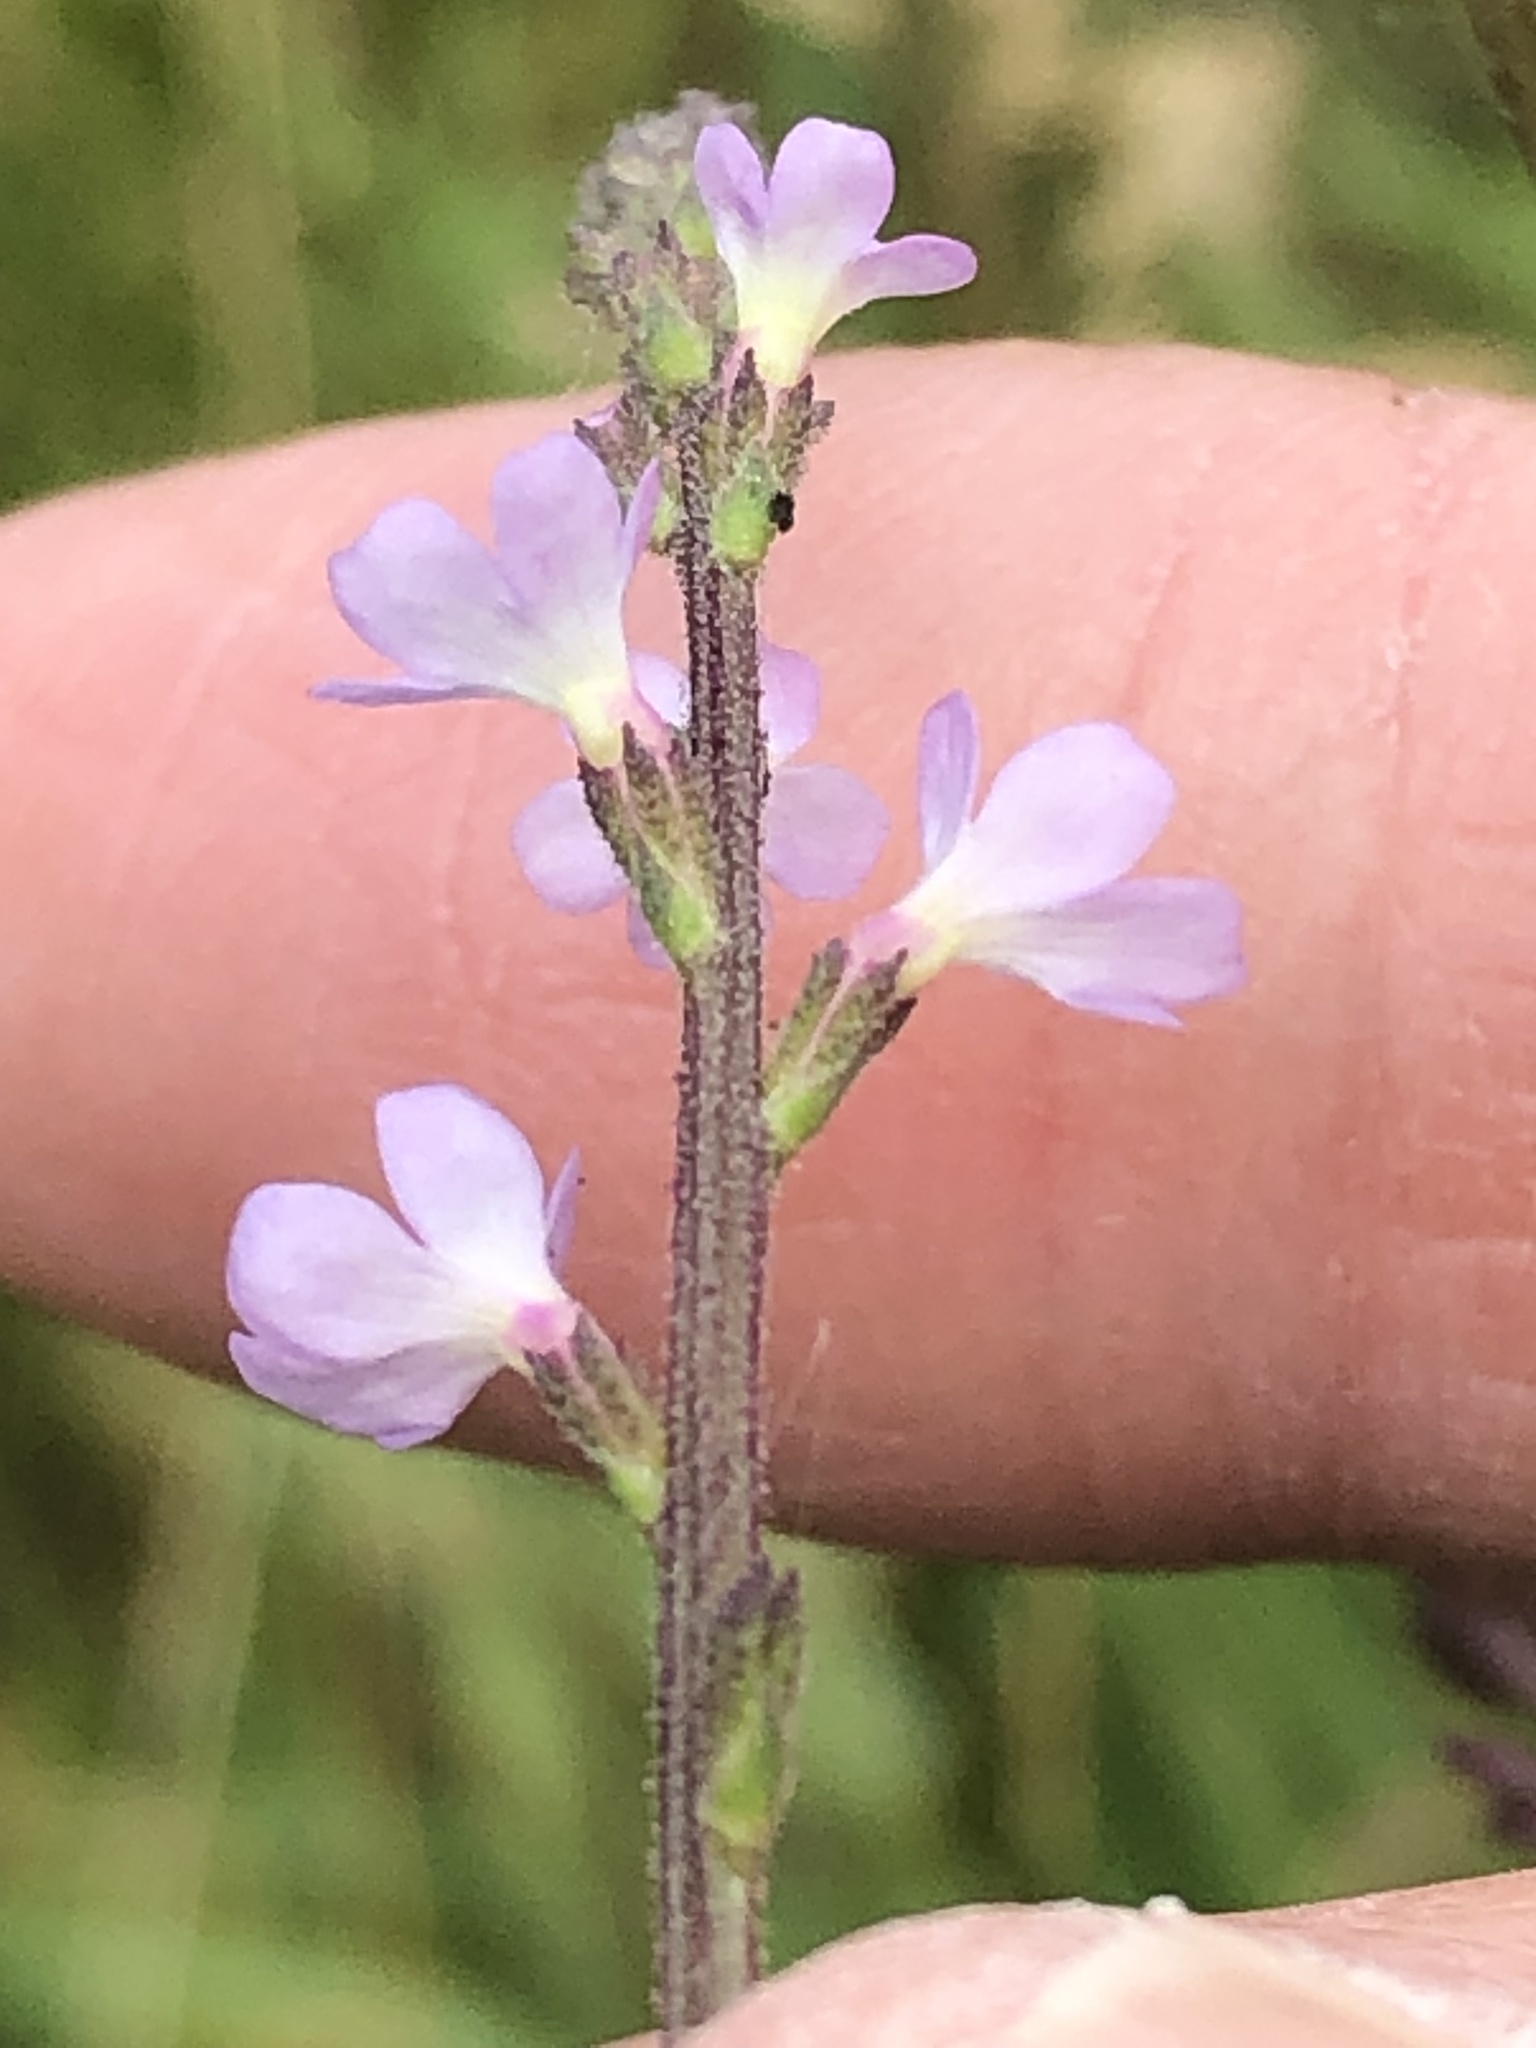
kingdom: Plantae
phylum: Tracheophyta
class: Magnoliopsida
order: Lamiales
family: Verbenaceae
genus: Verbena
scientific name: Verbena officinalis
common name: Vervain
